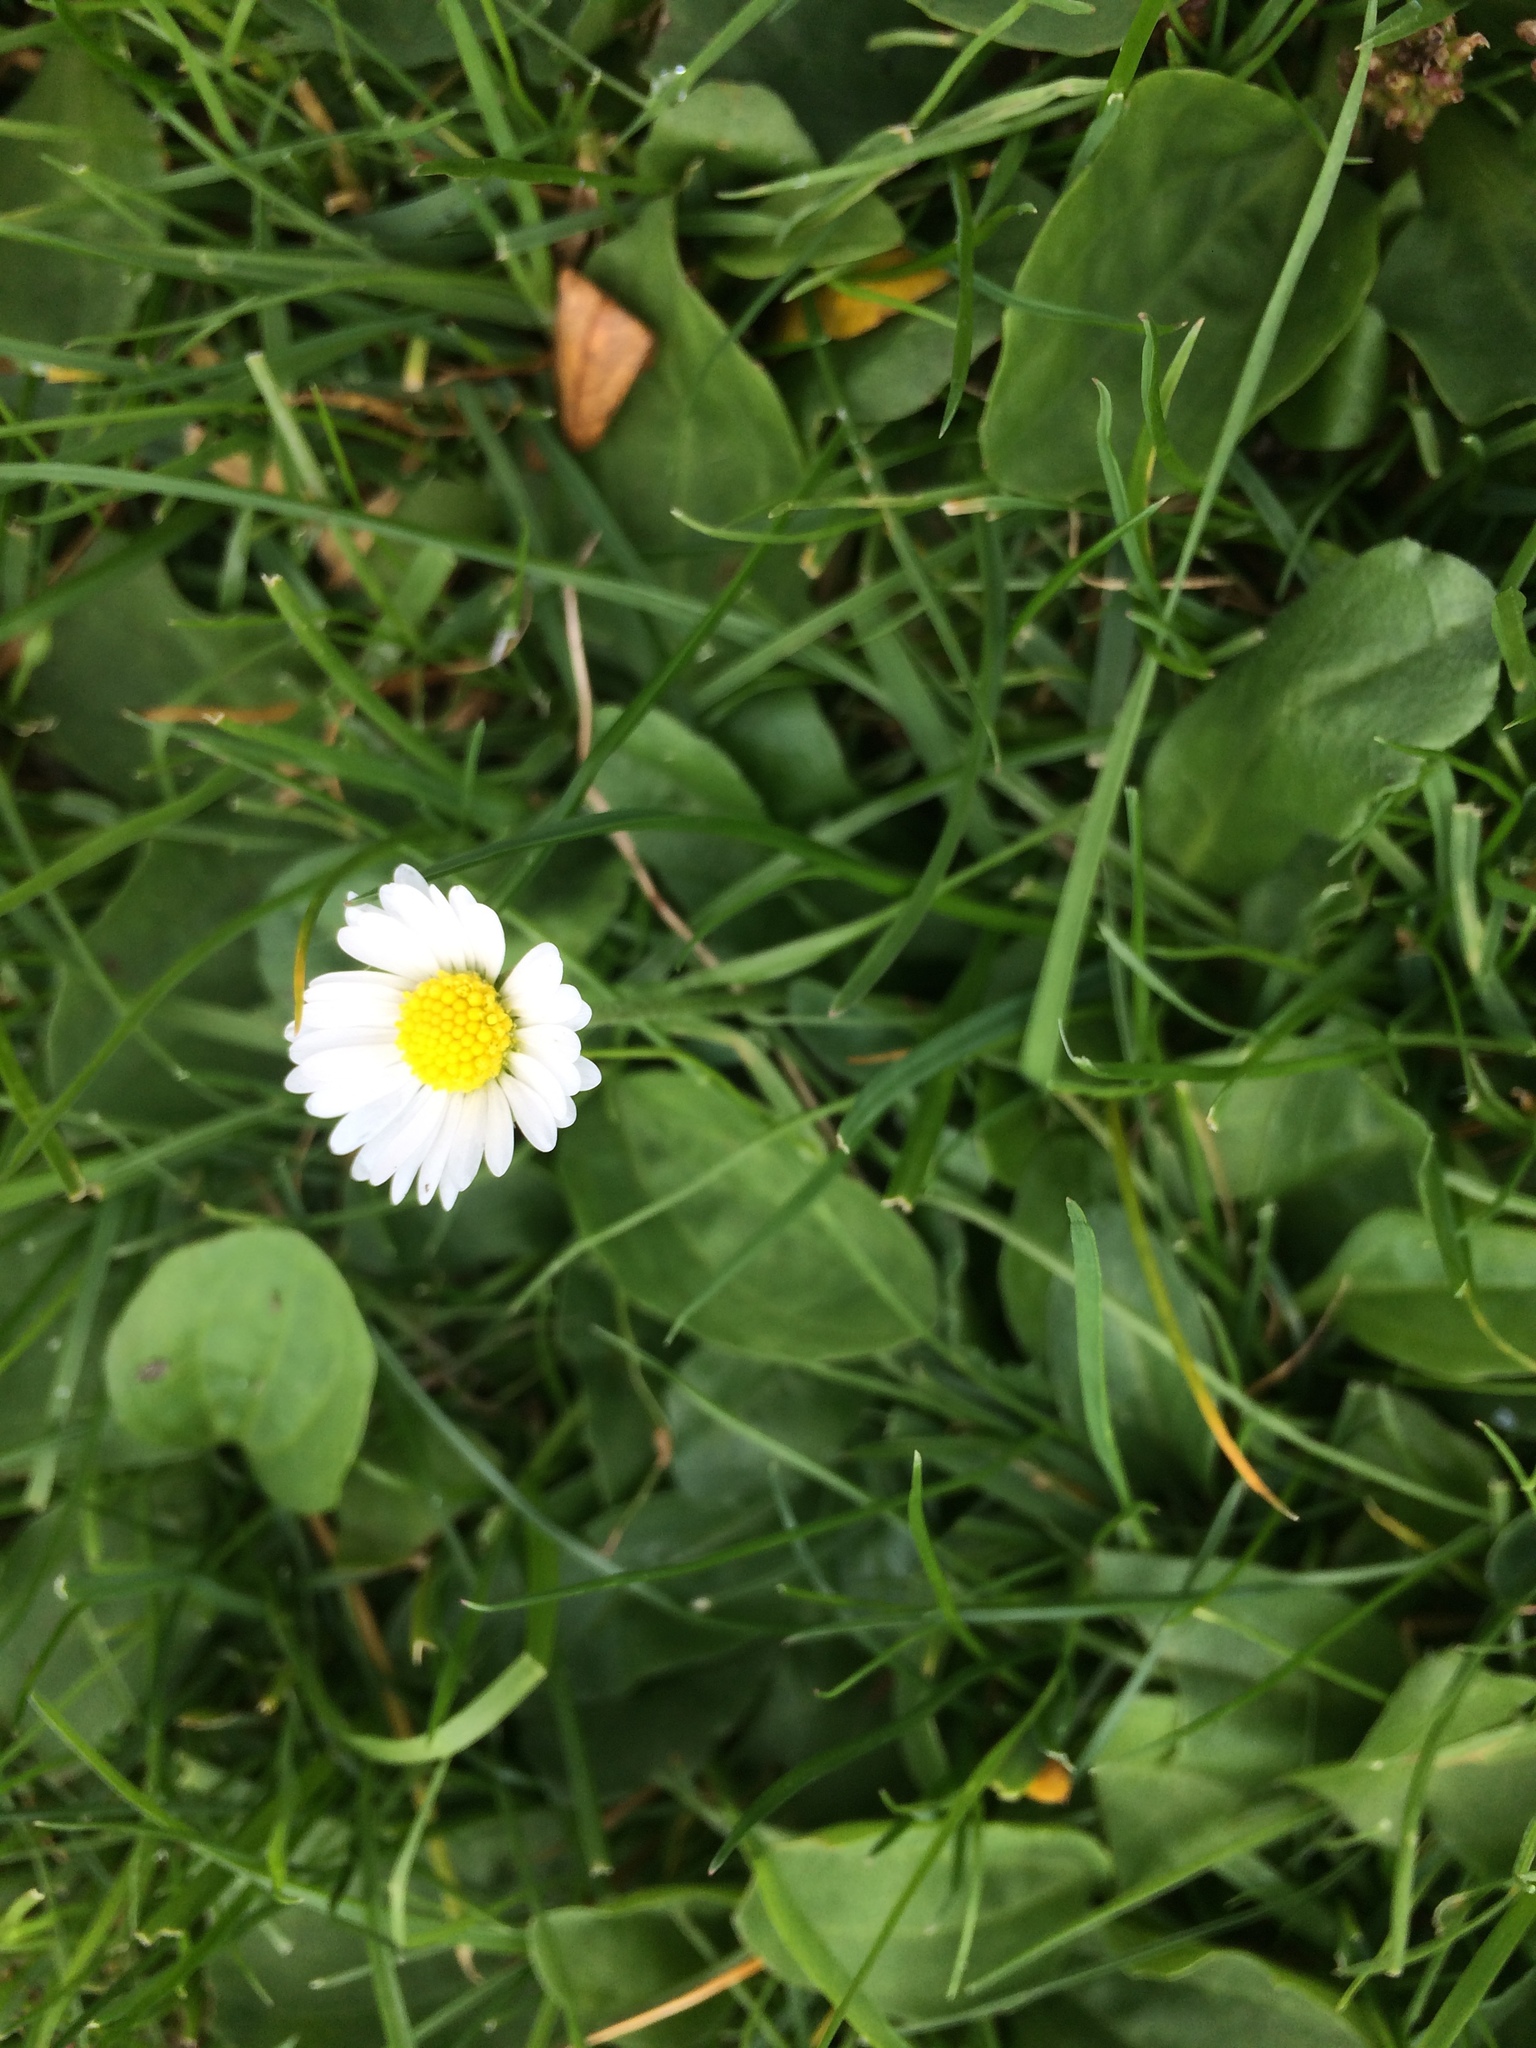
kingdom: Plantae
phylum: Tracheophyta
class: Magnoliopsida
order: Asterales
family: Asteraceae
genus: Bellis
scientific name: Bellis perennis
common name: Lawndaisy
